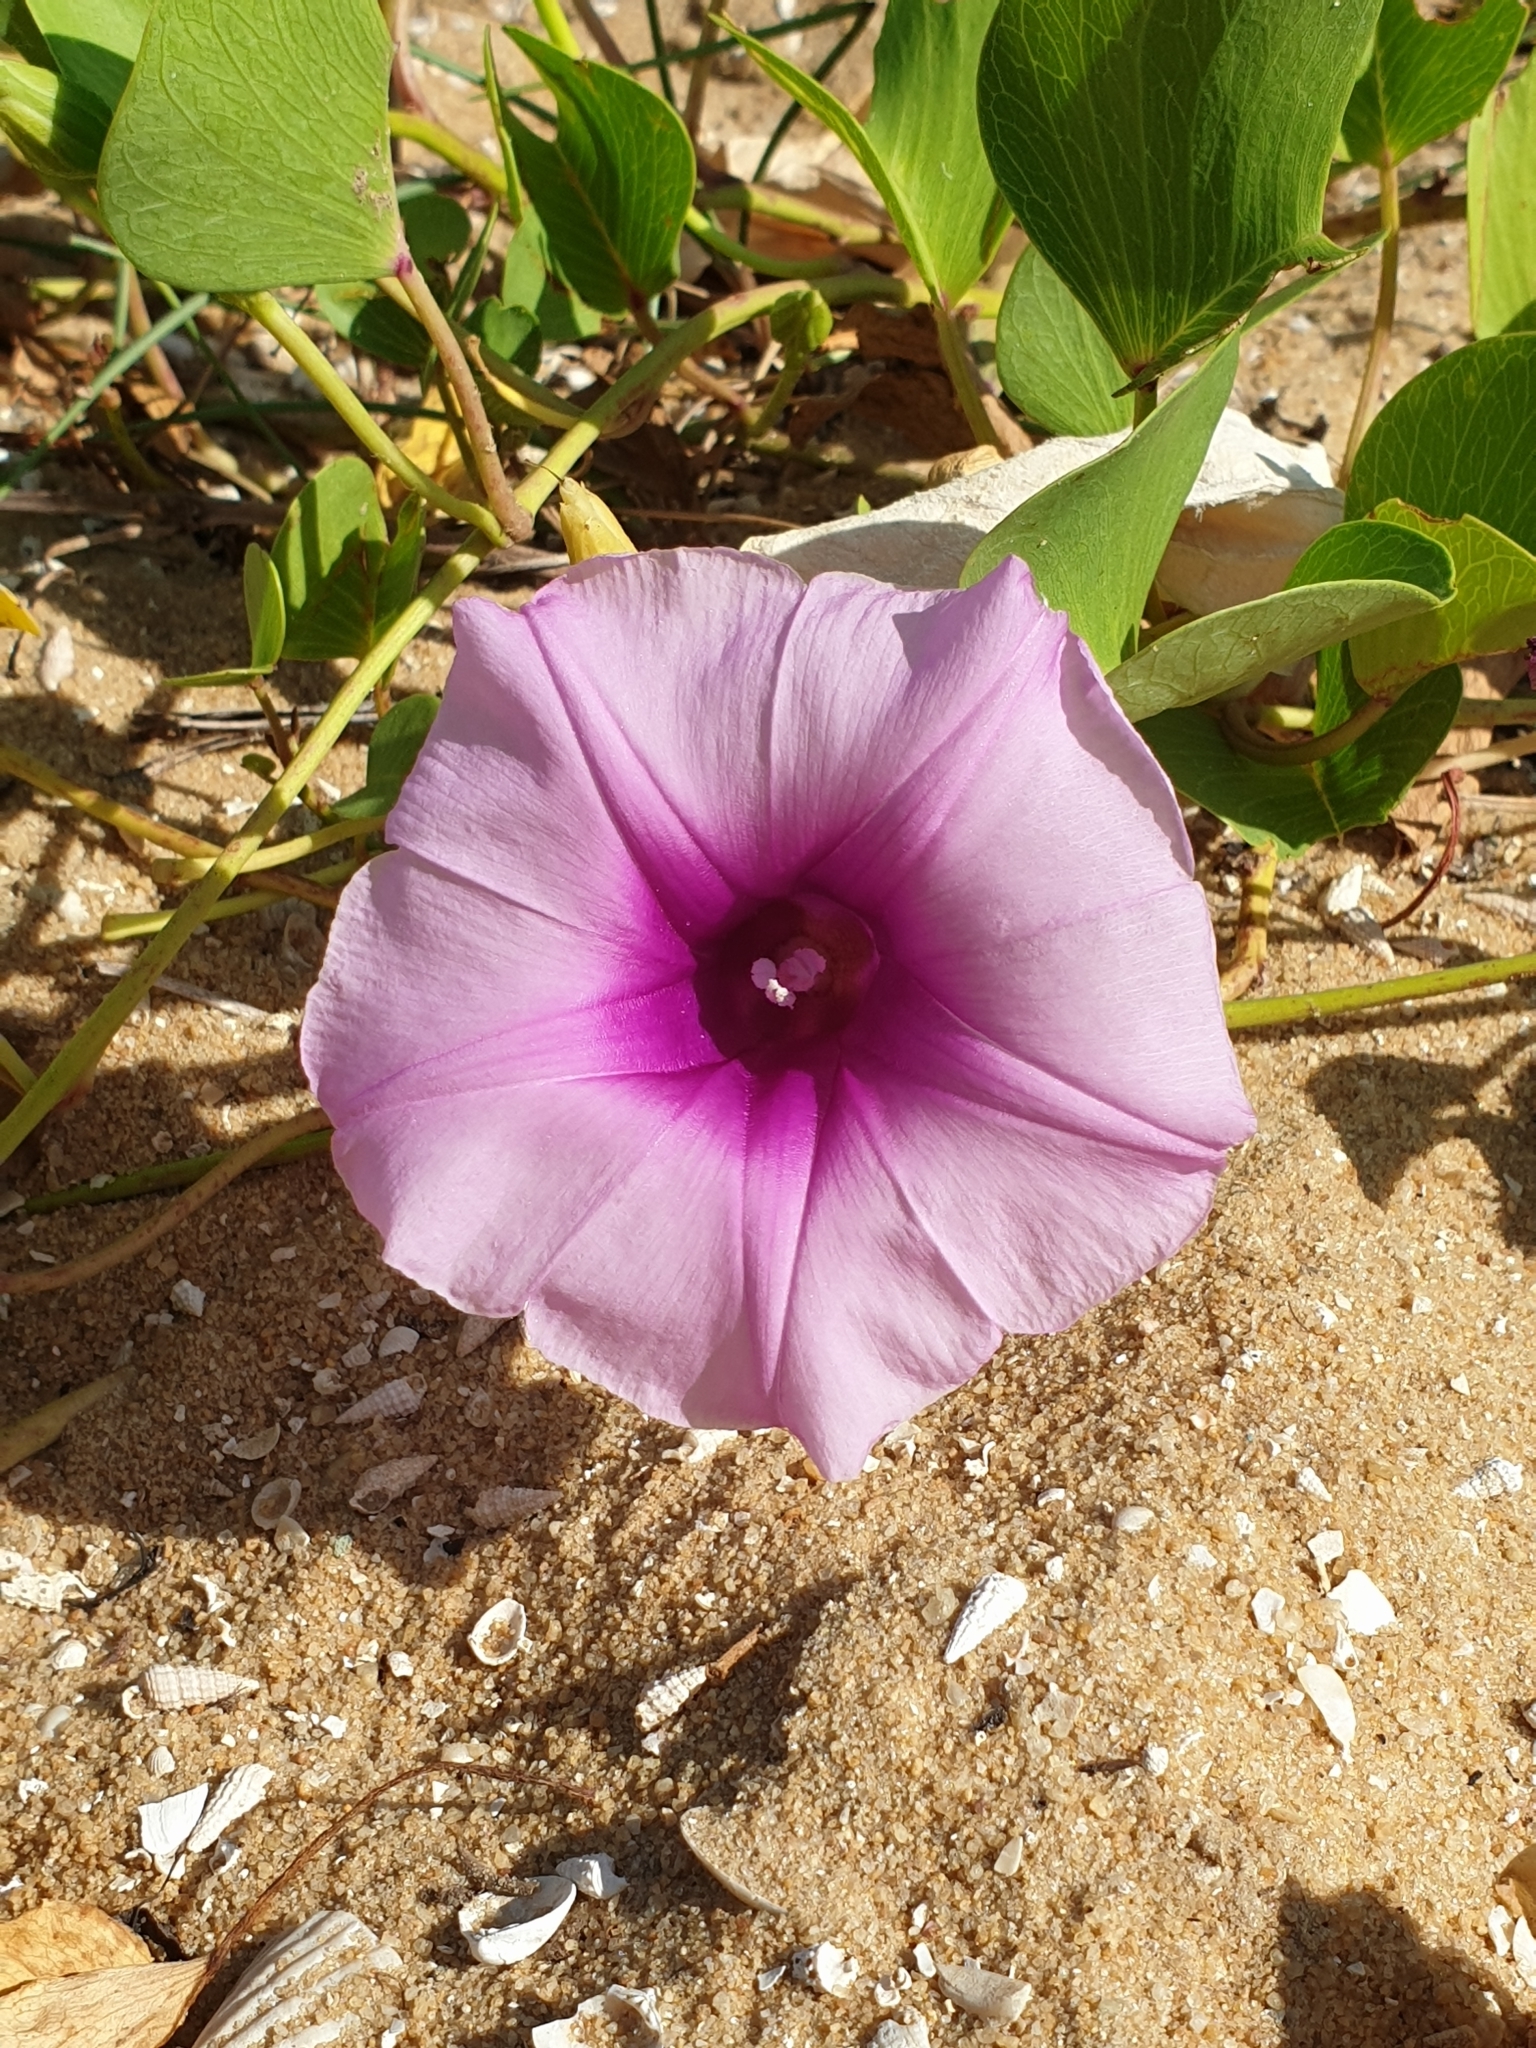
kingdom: Plantae
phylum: Tracheophyta
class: Magnoliopsida
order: Solanales
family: Convolvulaceae
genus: Ipomoea
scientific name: Ipomoea pes-caprae
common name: Beach morning glory
